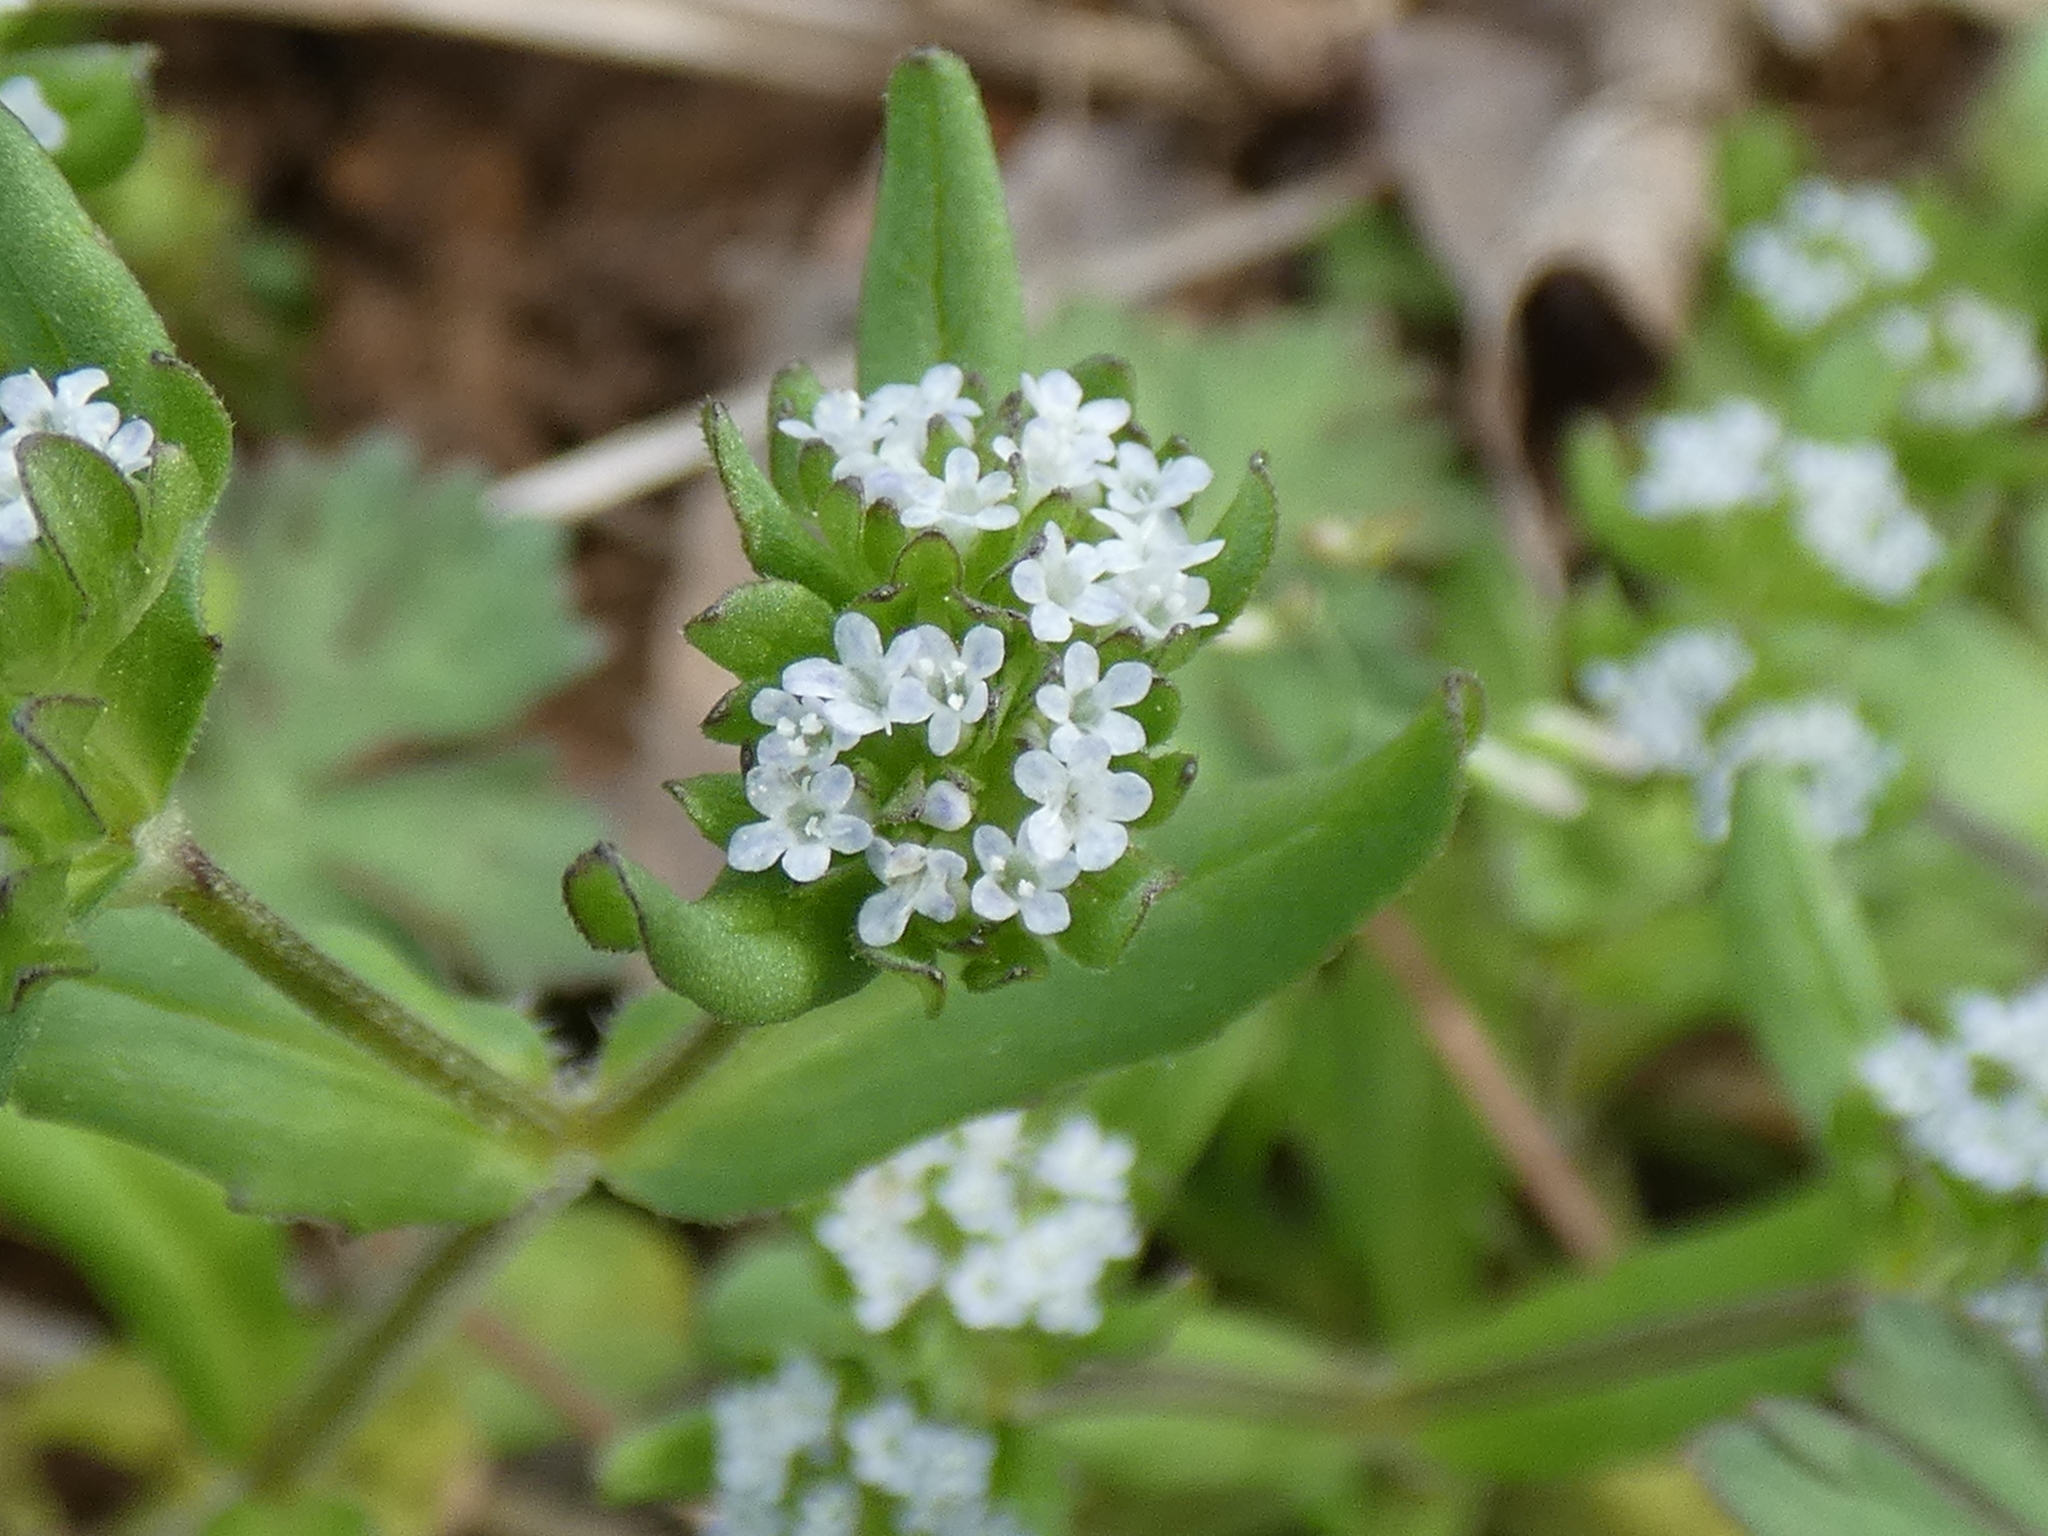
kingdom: Plantae
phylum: Tracheophyta
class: Magnoliopsida
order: Dipsacales
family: Caprifoliaceae
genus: Valerianella
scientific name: Valerianella locusta
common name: Common cornsalad
